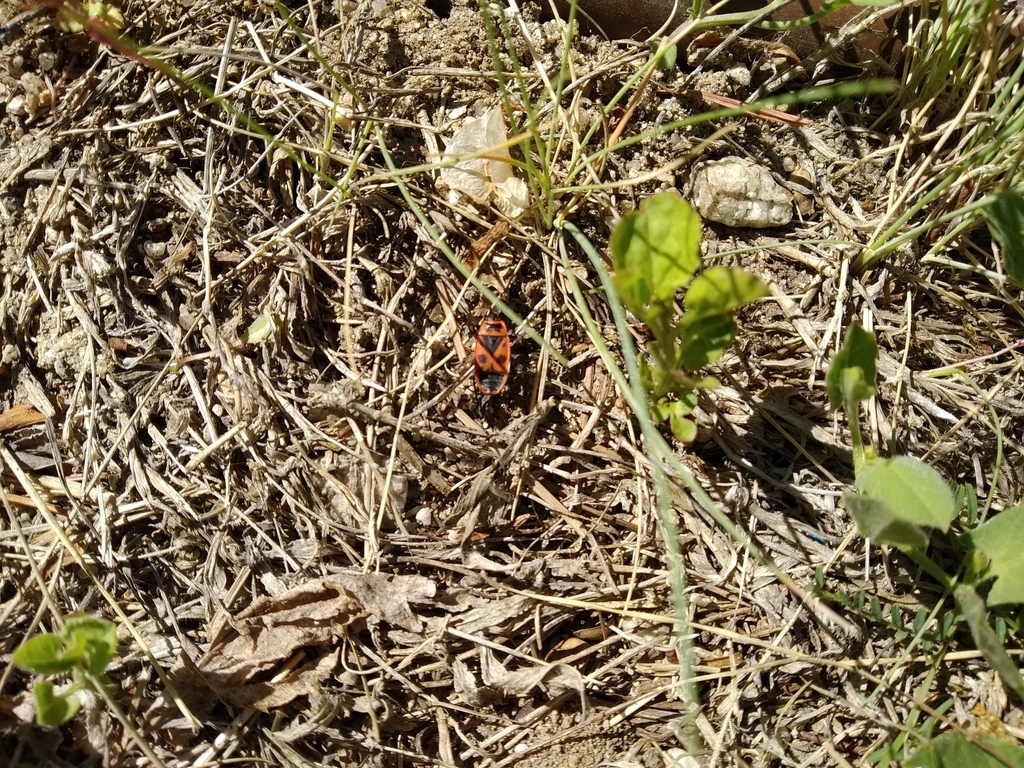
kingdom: Animalia
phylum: Arthropoda
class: Insecta
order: Hemiptera
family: Pyrrhocoridae
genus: Pyrrhocoris
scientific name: Pyrrhocoris apterus
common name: Firebug
